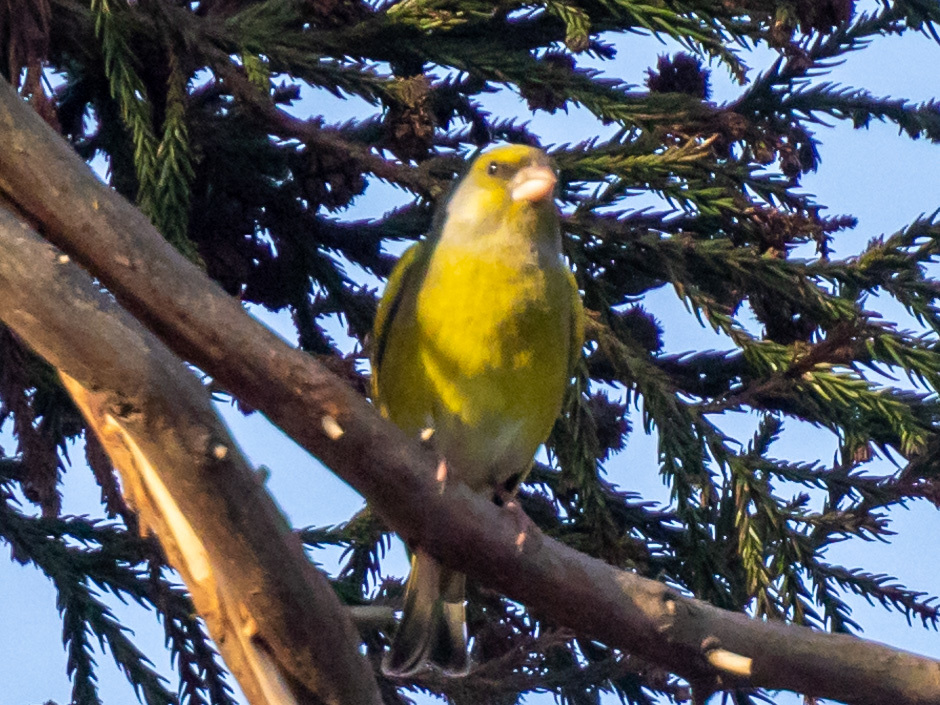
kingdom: Plantae
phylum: Tracheophyta
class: Liliopsida
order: Poales
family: Poaceae
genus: Chloris
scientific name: Chloris chloris
